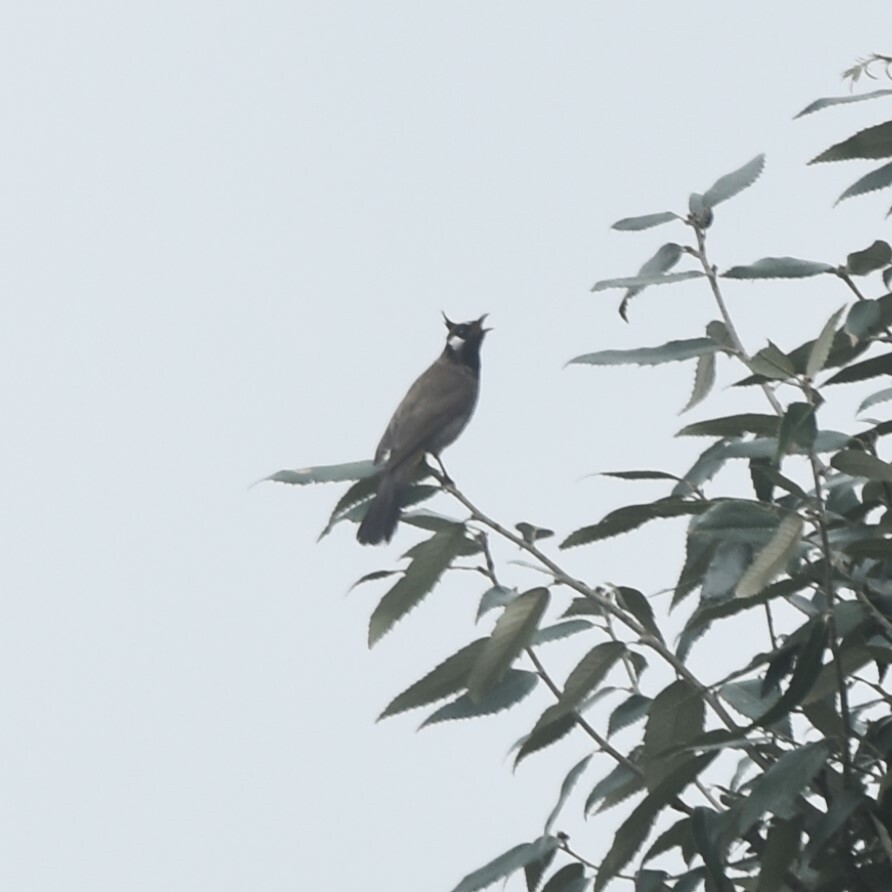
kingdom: Animalia
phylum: Chordata
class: Aves
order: Passeriformes
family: Pycnonotidae
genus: Pycnonotus
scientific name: Pycnonotus leucogenys
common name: Himalayan bulbul
